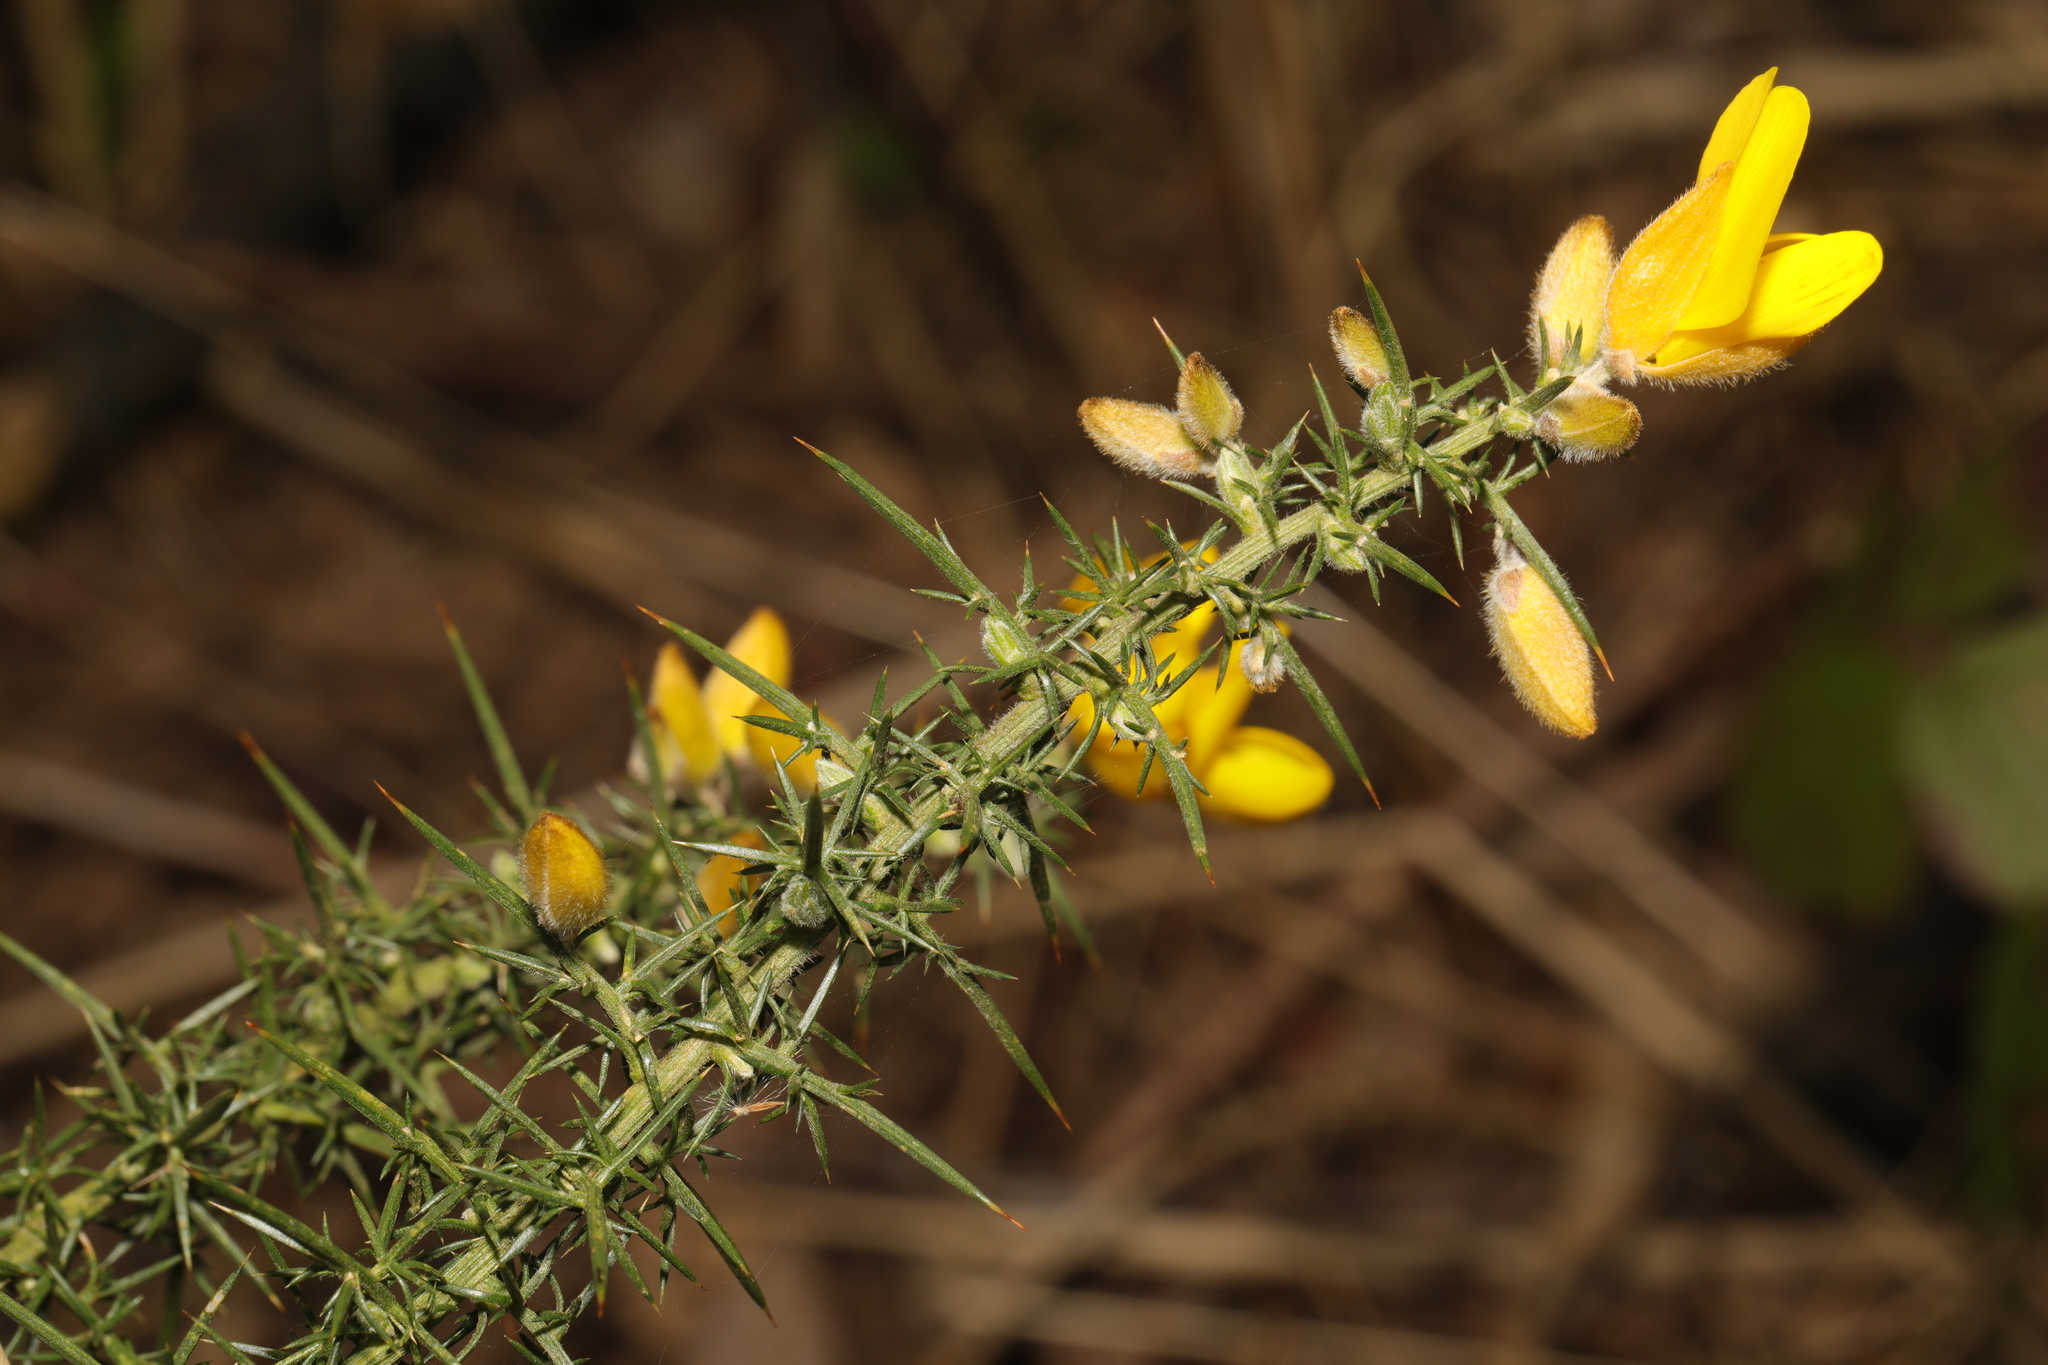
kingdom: Plantae
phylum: Tracheophyta
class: Magnoliopsida
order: Fabales
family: Fabaceae
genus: Ulex
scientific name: Ulex europaeus
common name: Common gorse
